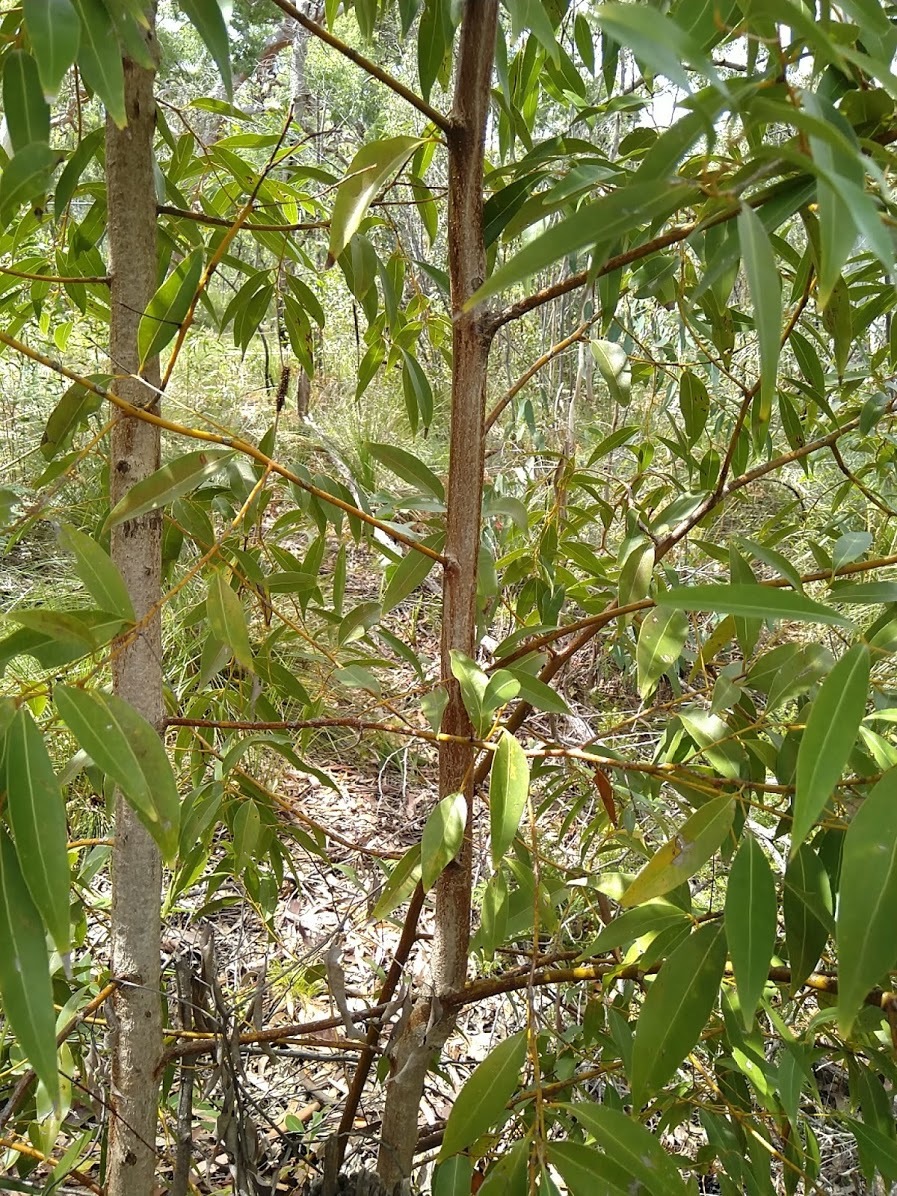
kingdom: Plantae
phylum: Tracheophyta
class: Magnoliopsida
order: Laurales
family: Lauraceae
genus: Endiandra
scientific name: Endiandra sieberi
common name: Corkwood
